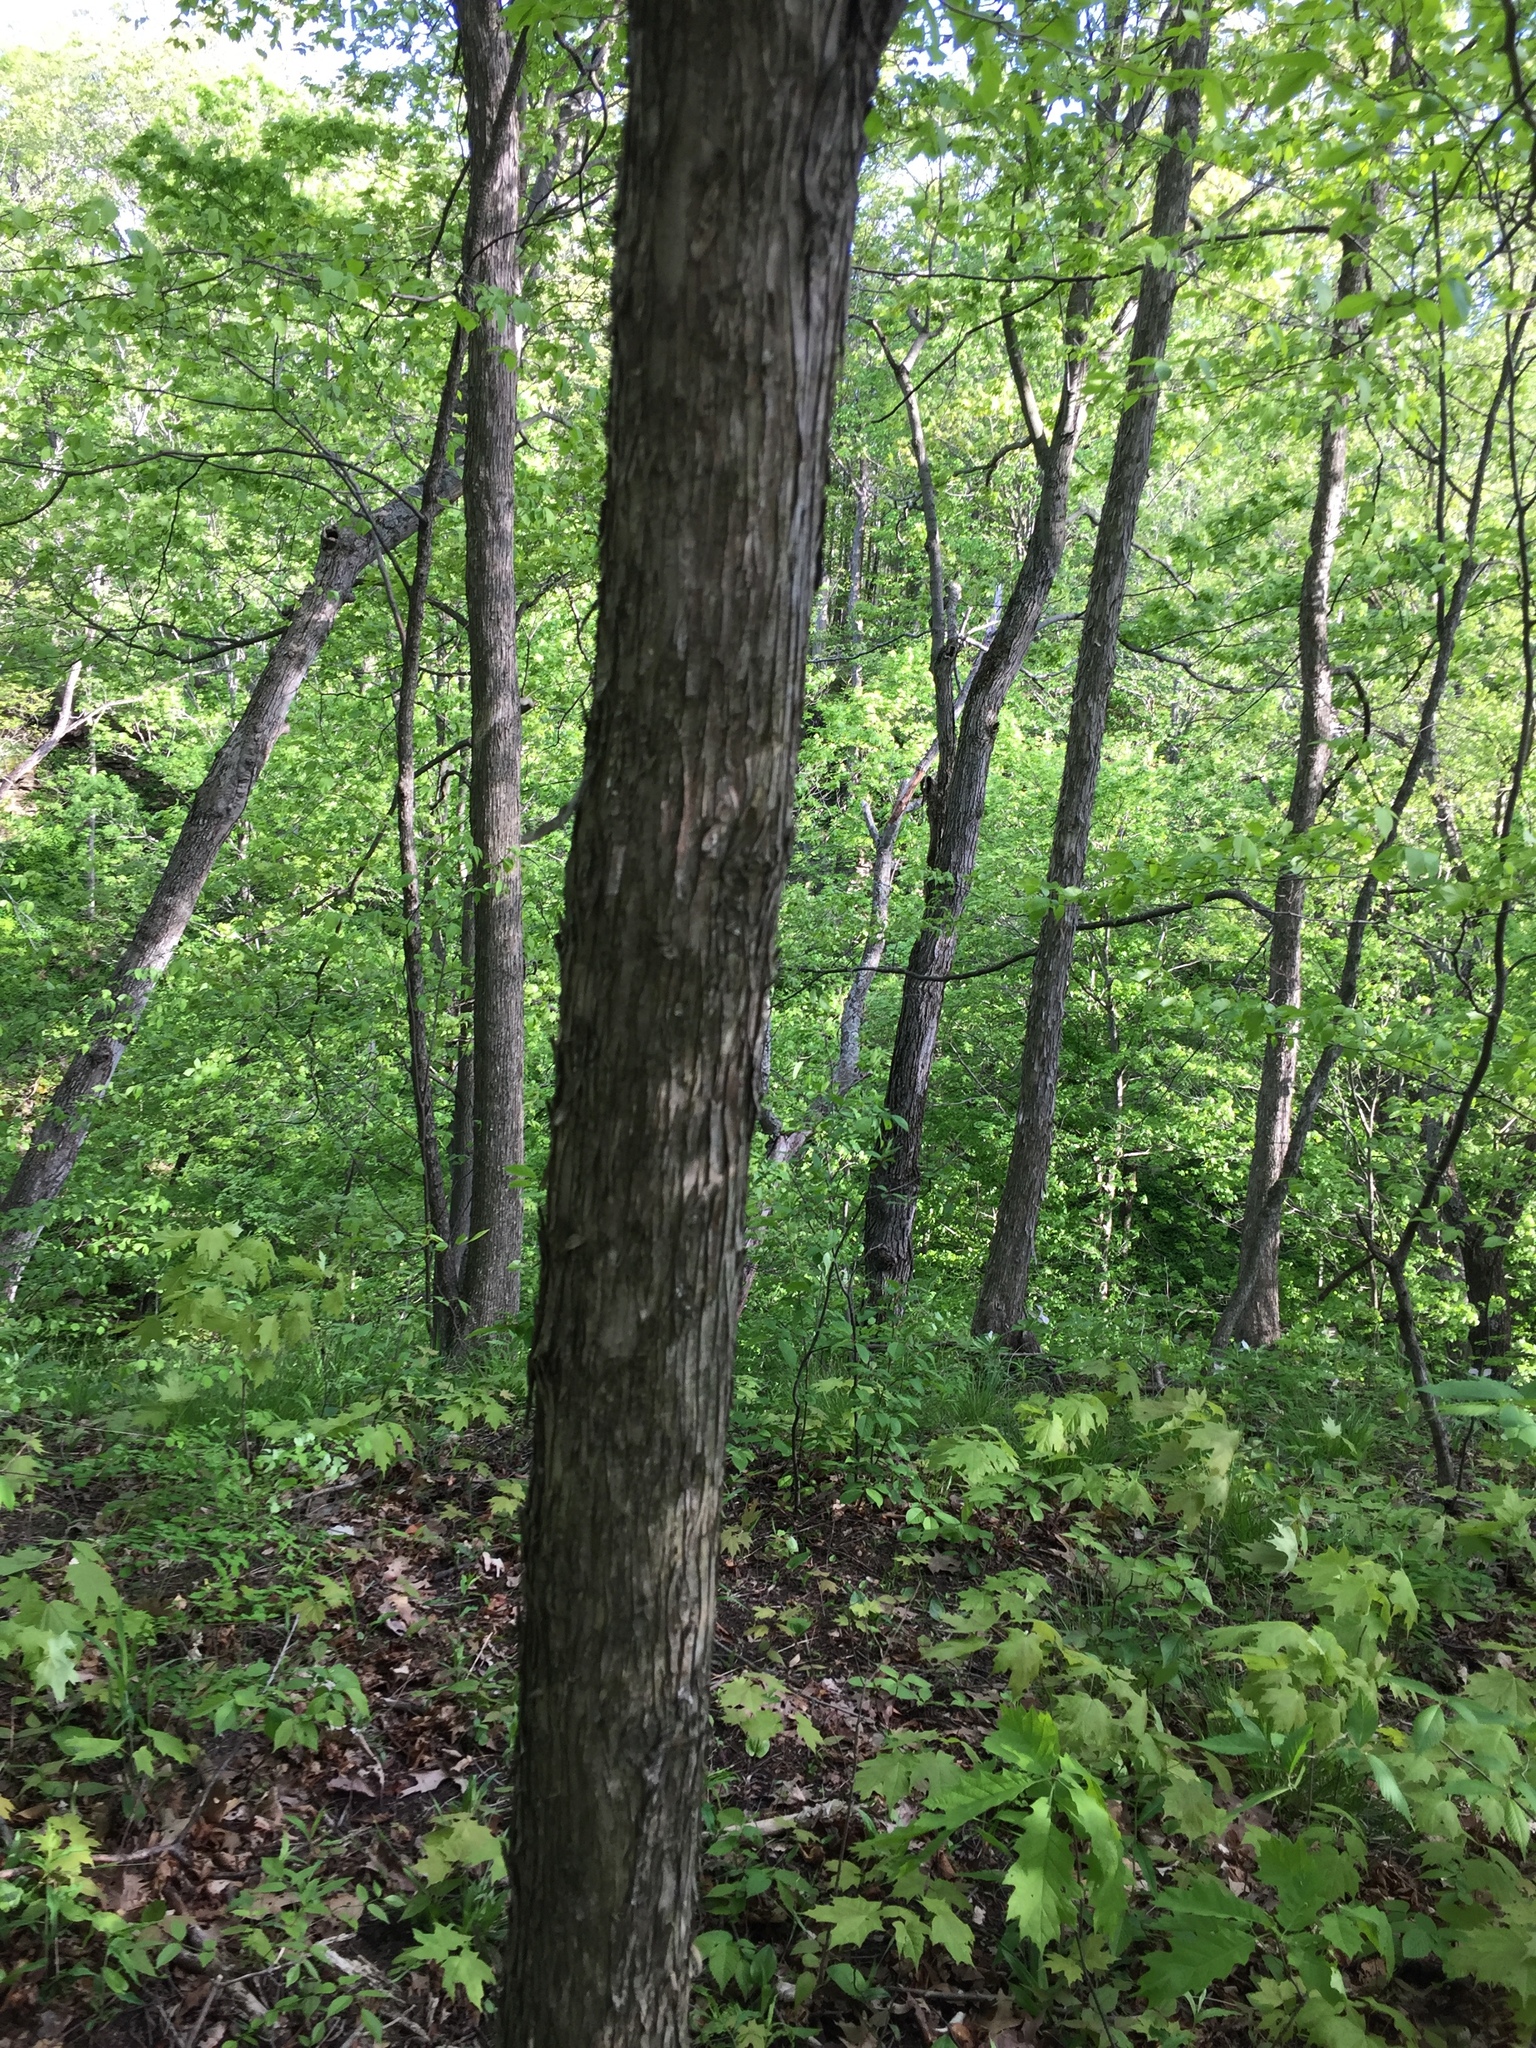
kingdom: Plantae
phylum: Tracheophyta
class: Magnoliopsida
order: Fagales
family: Betulaceae
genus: Ostrya
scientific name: Ostrya virginiana
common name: Ironwood
